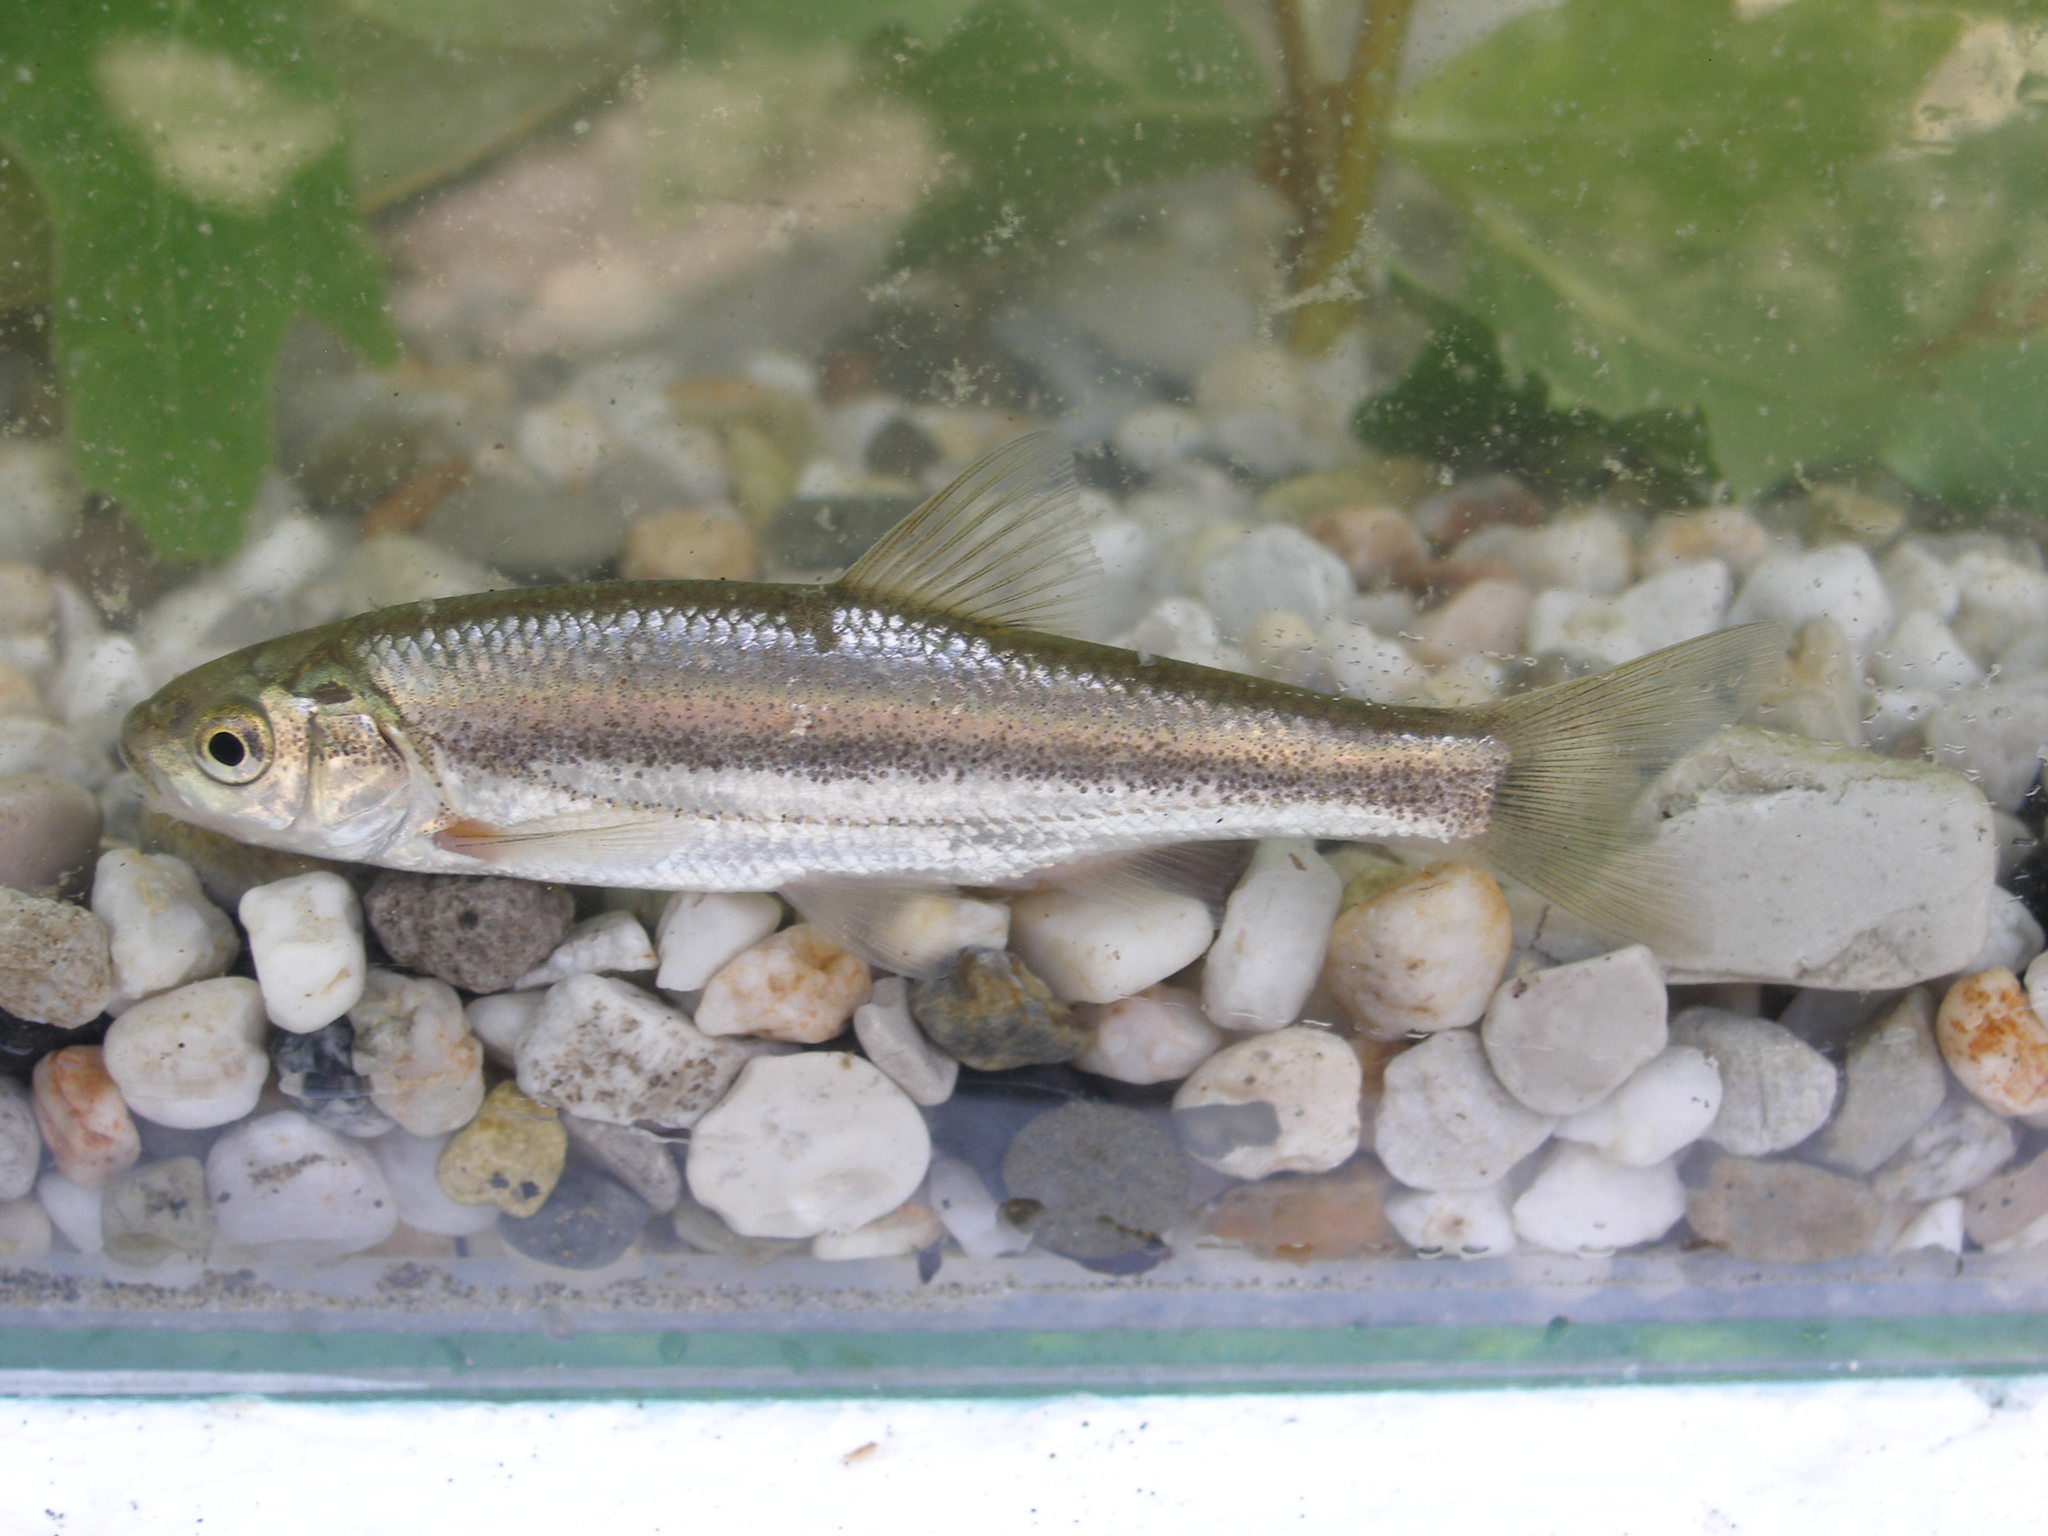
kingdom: Animalia
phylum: Chordata
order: Cypriniformes
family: Cyprinidae
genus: Telestes
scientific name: Telestes pleurobipunctatus
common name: Epiros riffle dace
